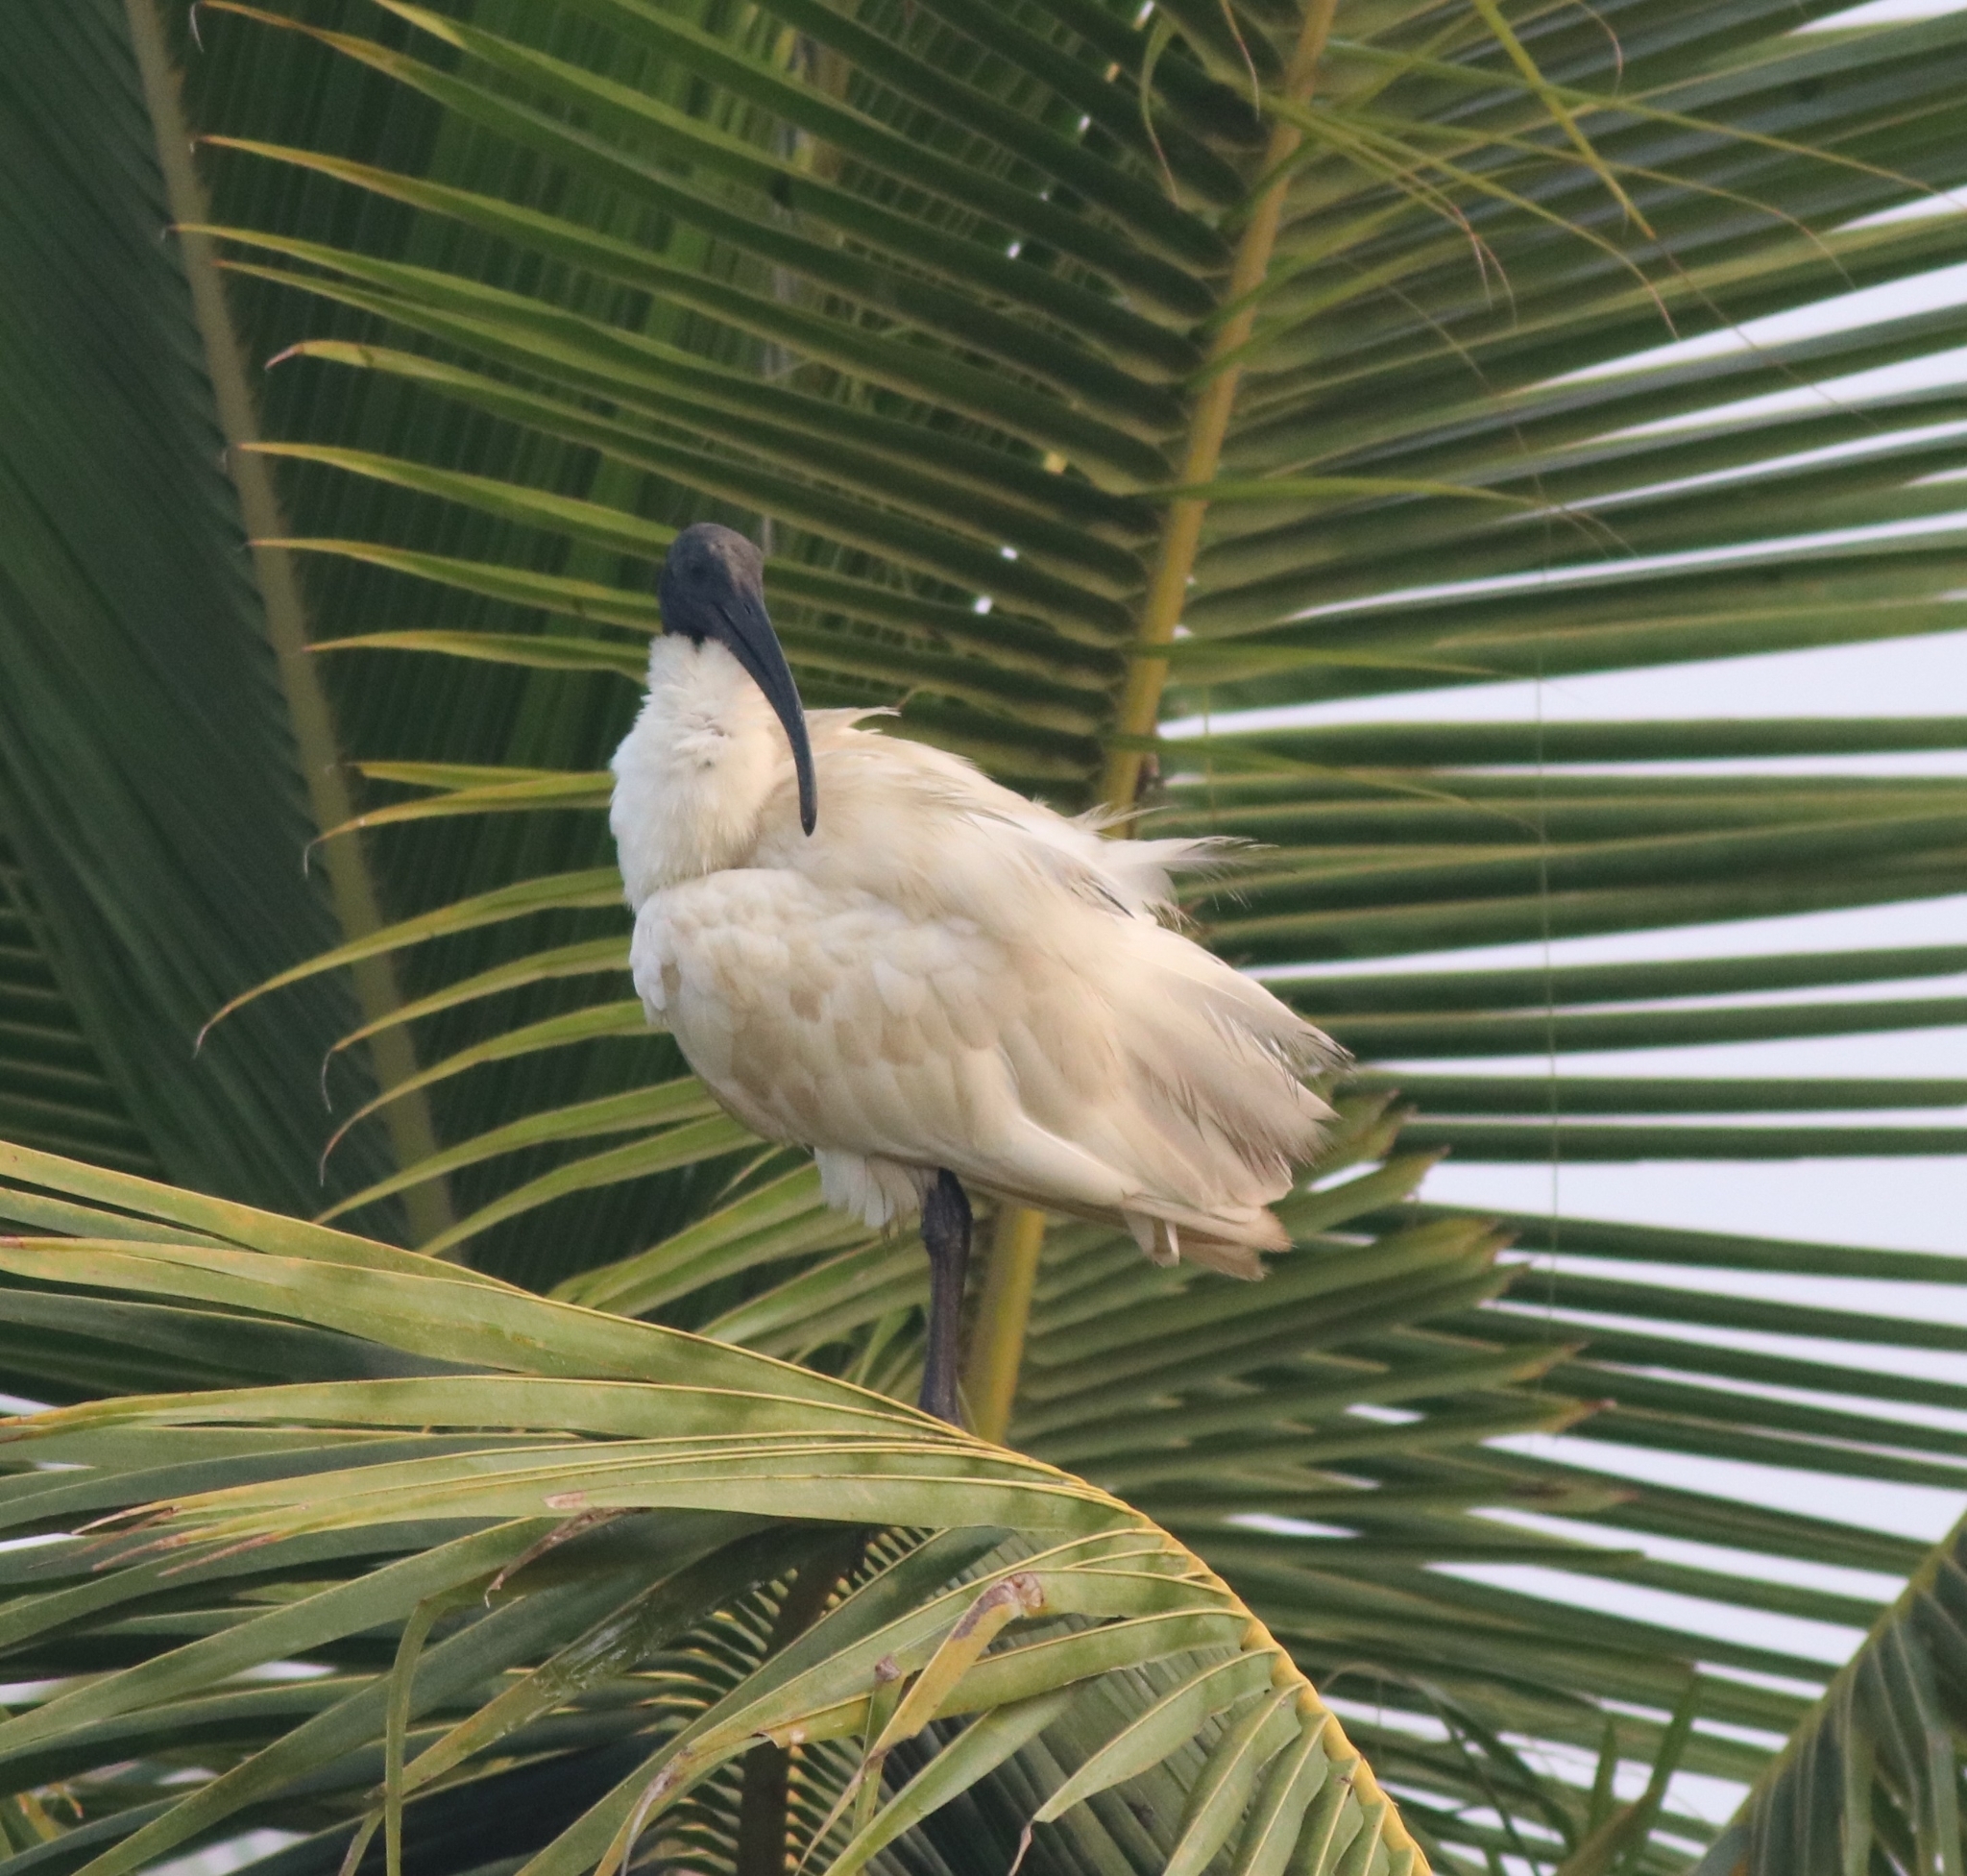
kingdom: Animalia
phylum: Chordata
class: Aves
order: Pelecaniformes
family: Threskiornithidae
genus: Threskiornis
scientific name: Threskiornis melanocephalus
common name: Black-headed ibis
